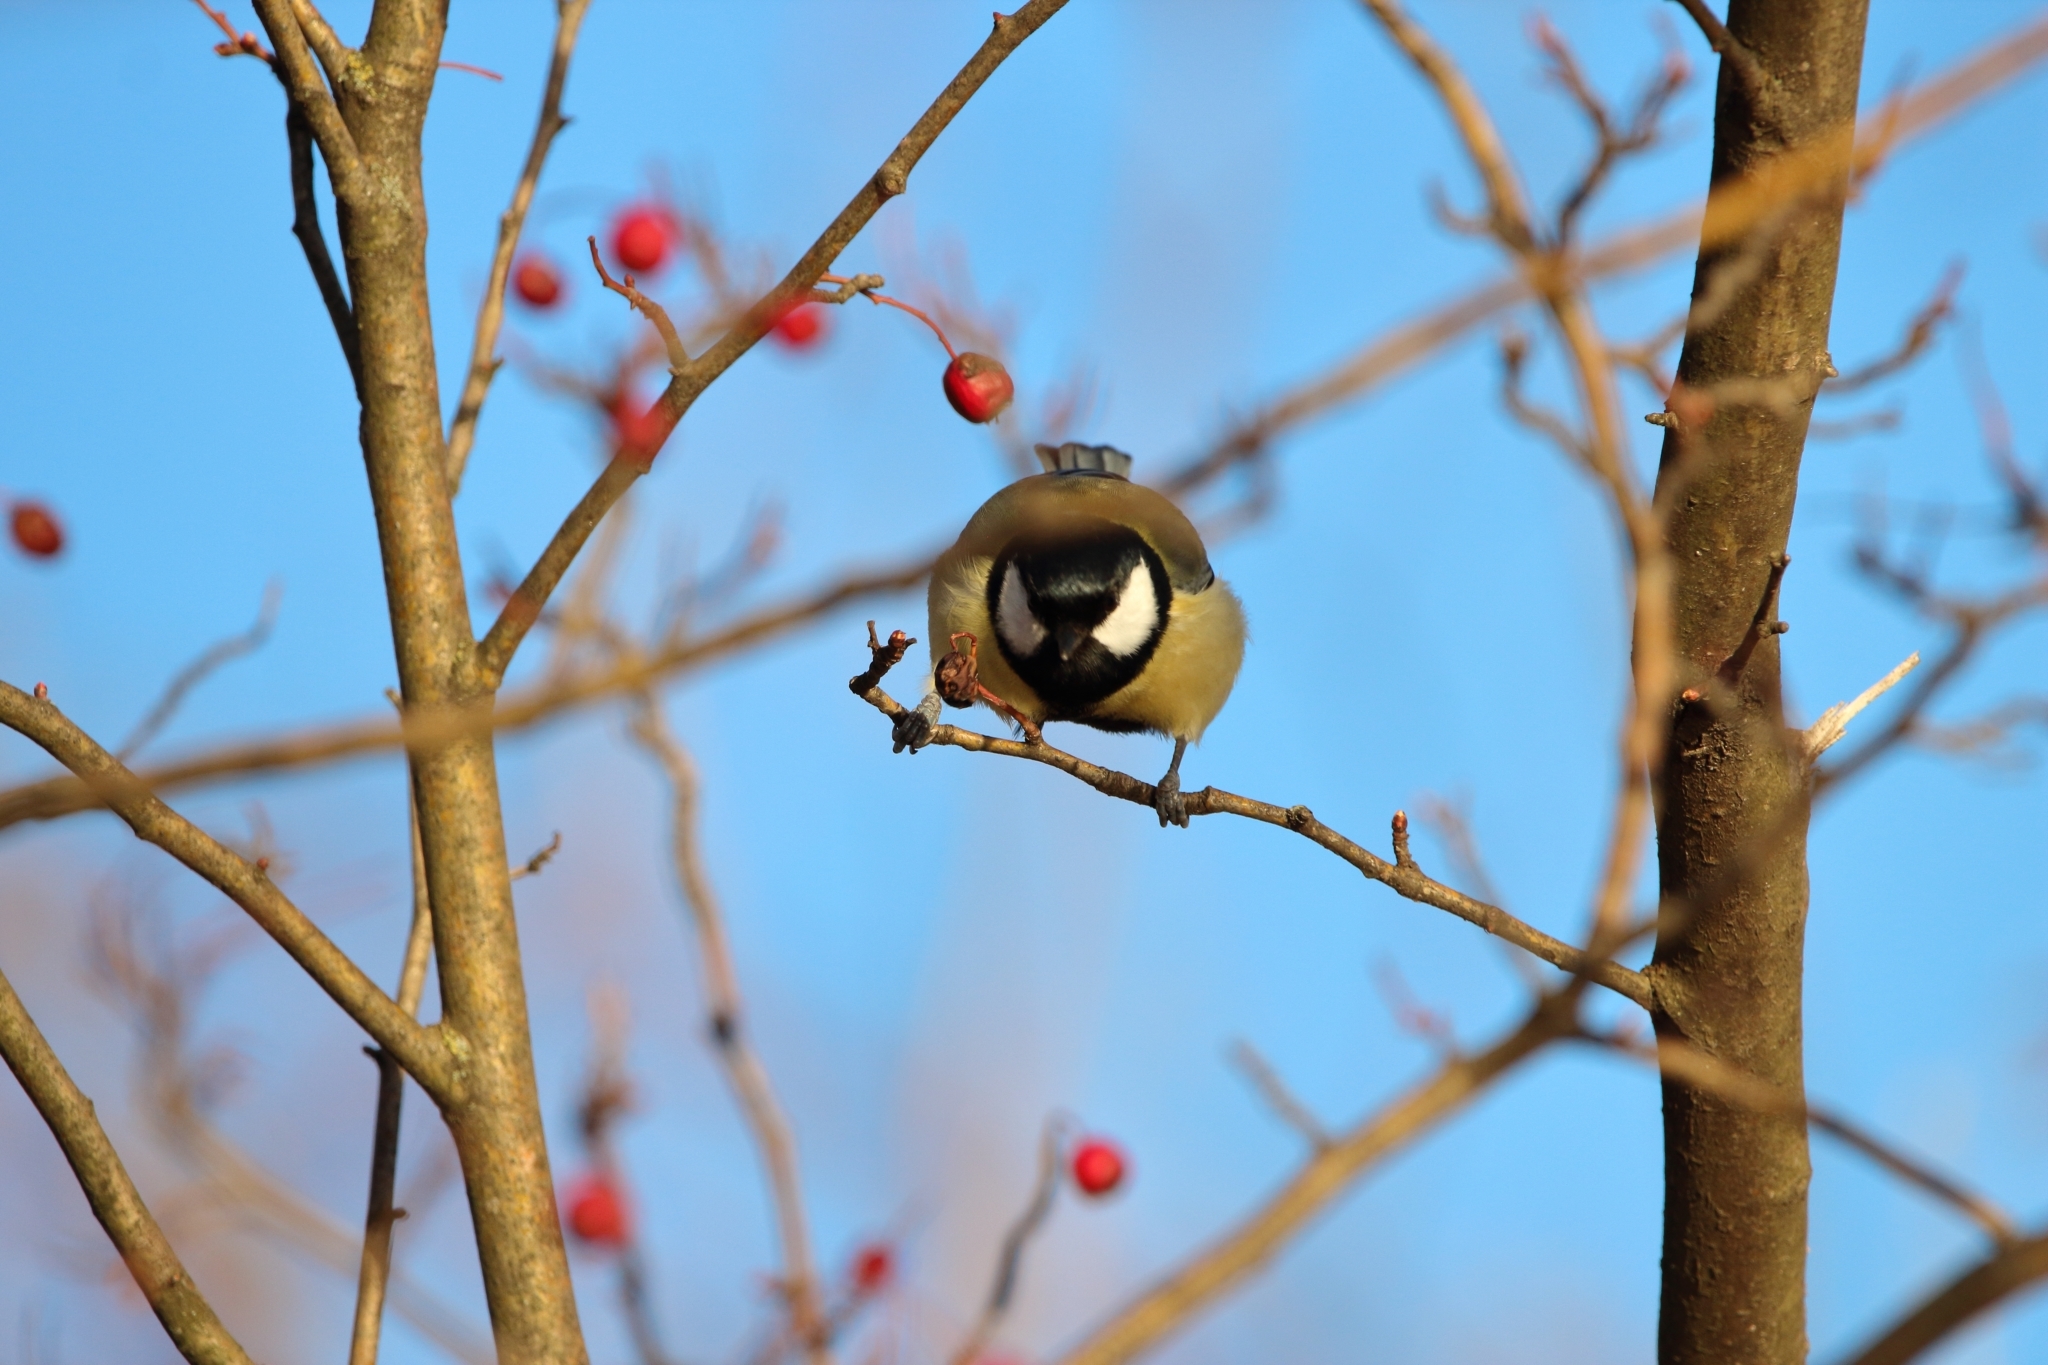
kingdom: Animalia
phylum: Chordata
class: Aves
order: Passeriformes
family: Paridae
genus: Parus
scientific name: Parus major
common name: Great tit
